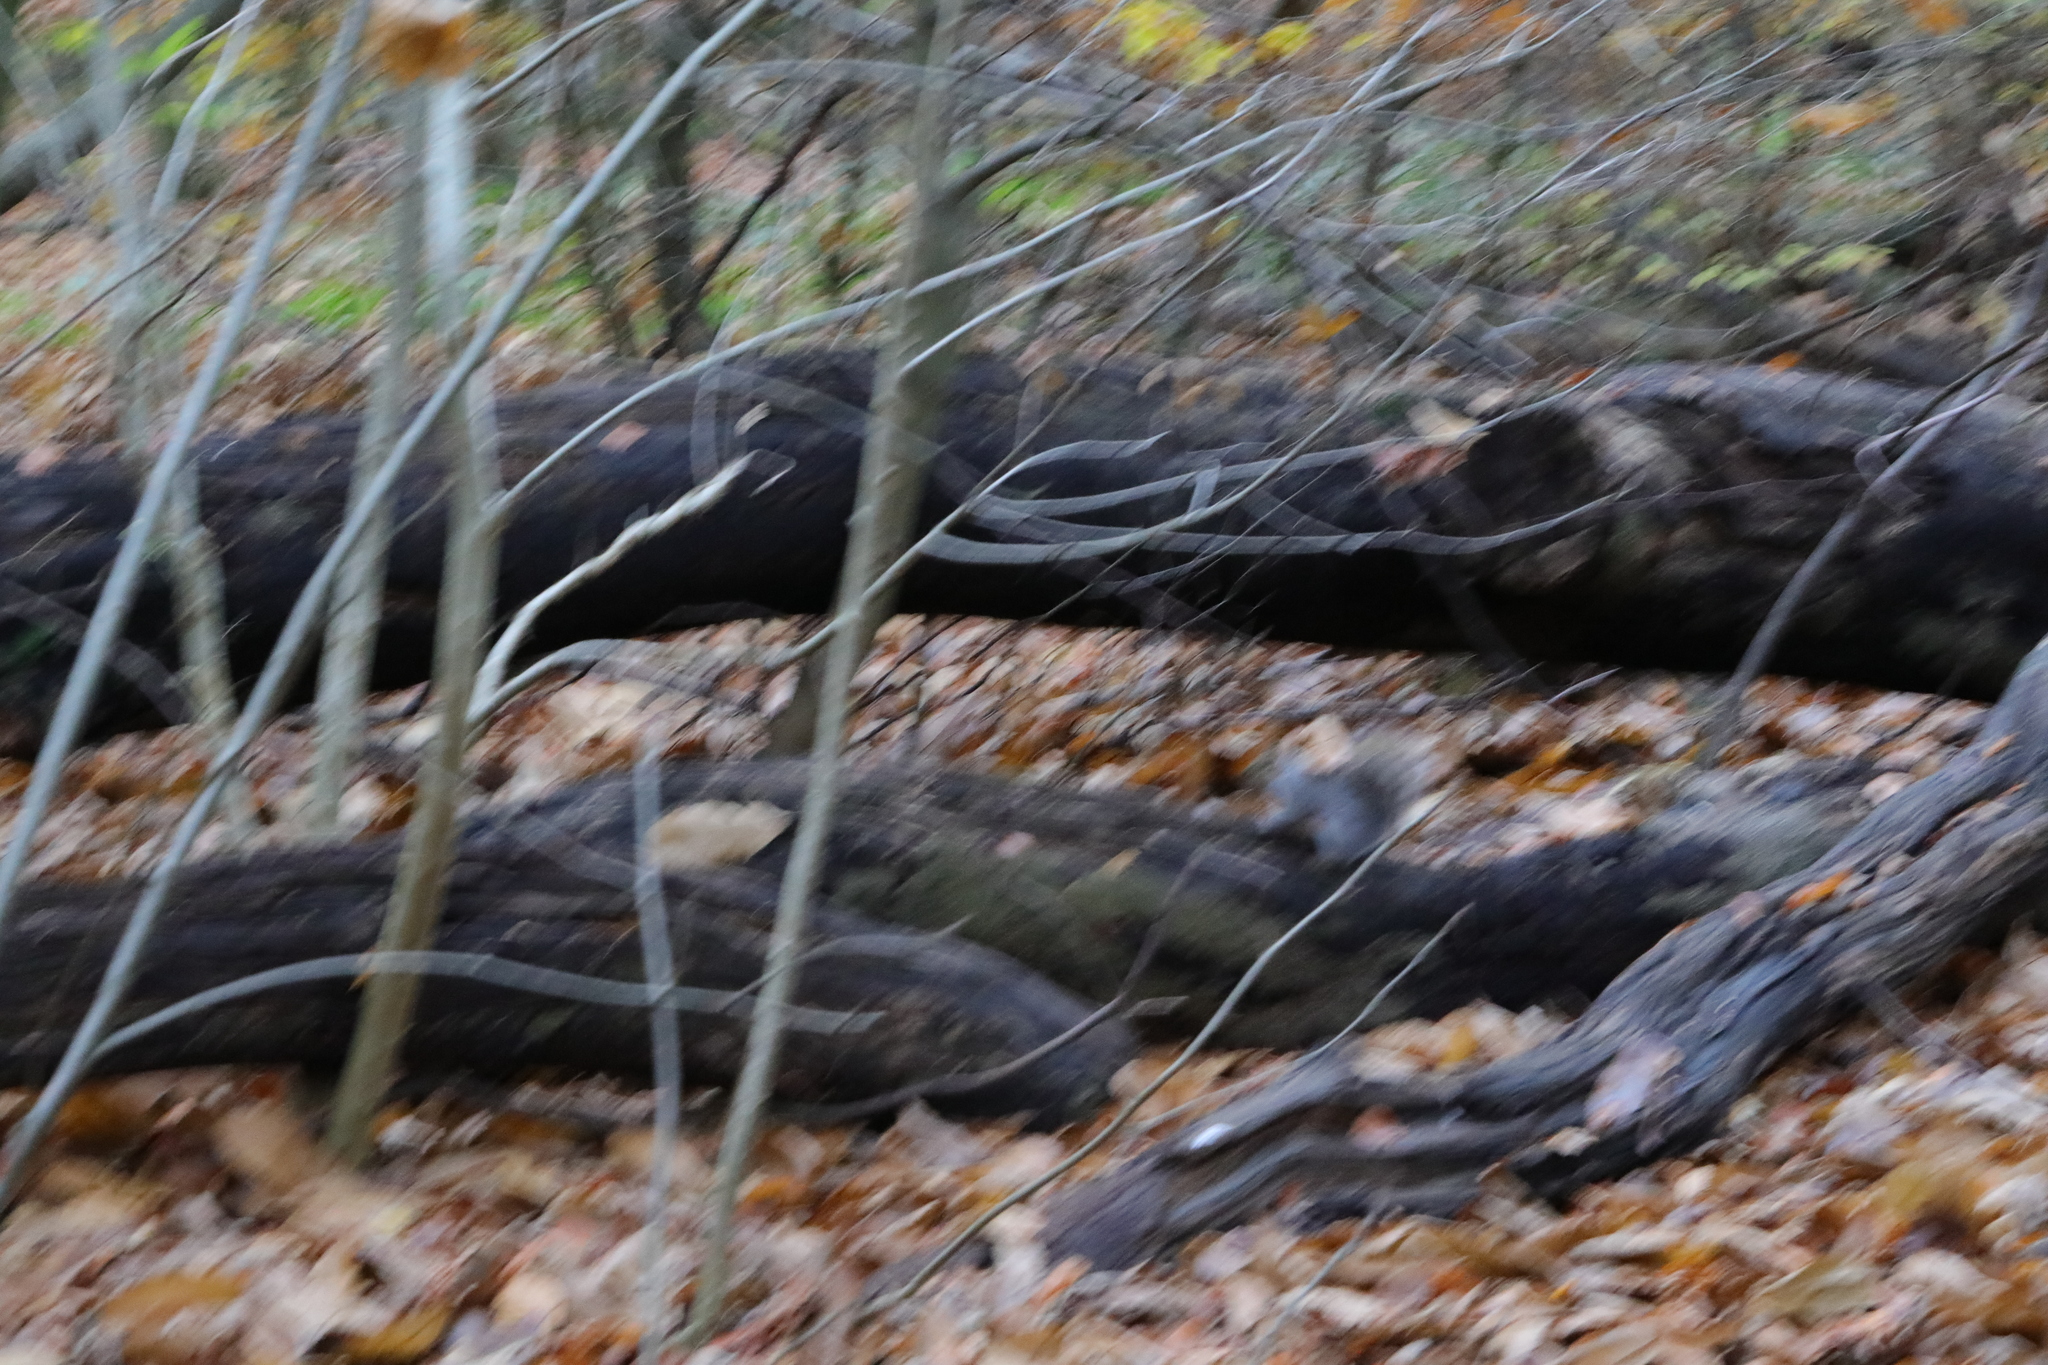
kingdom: Animalia
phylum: Chordata
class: Mammalia
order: Rodentia
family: Sciuridae
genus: Sciurus
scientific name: Sciurus carolinensis
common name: Eastern gray squirrel
